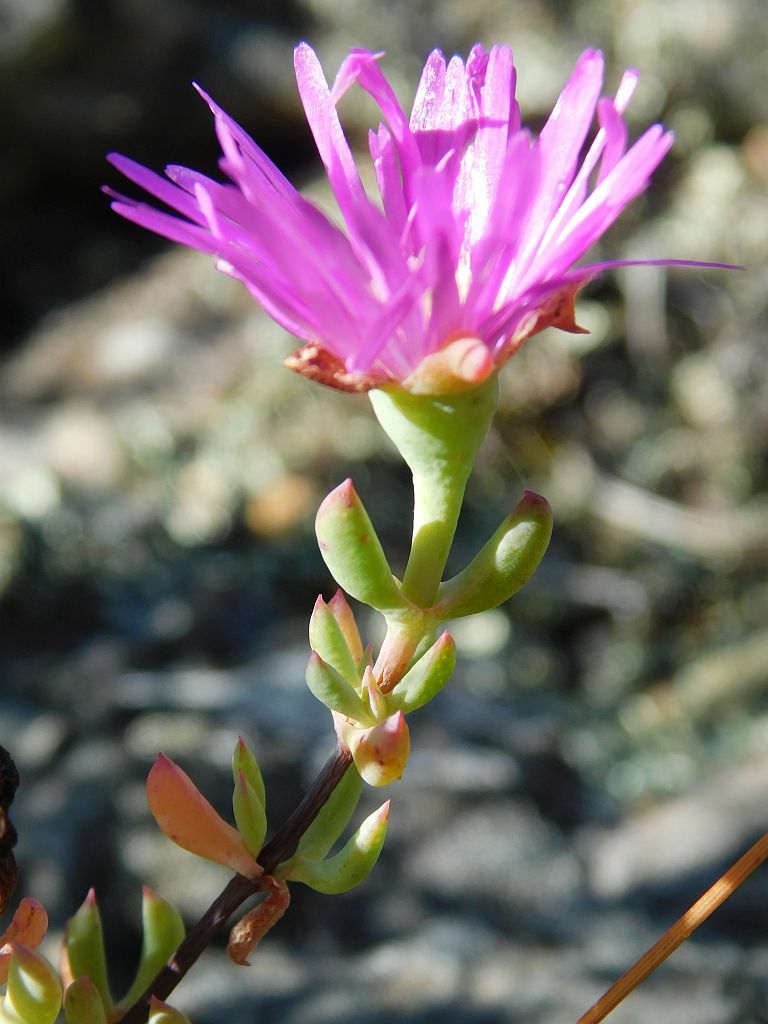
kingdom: Plantae
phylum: Tracheophyta
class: Magnoliopsida
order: Caryophyllales
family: Aizoaceae
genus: Lampranthus
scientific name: Lampranthus falcatus
